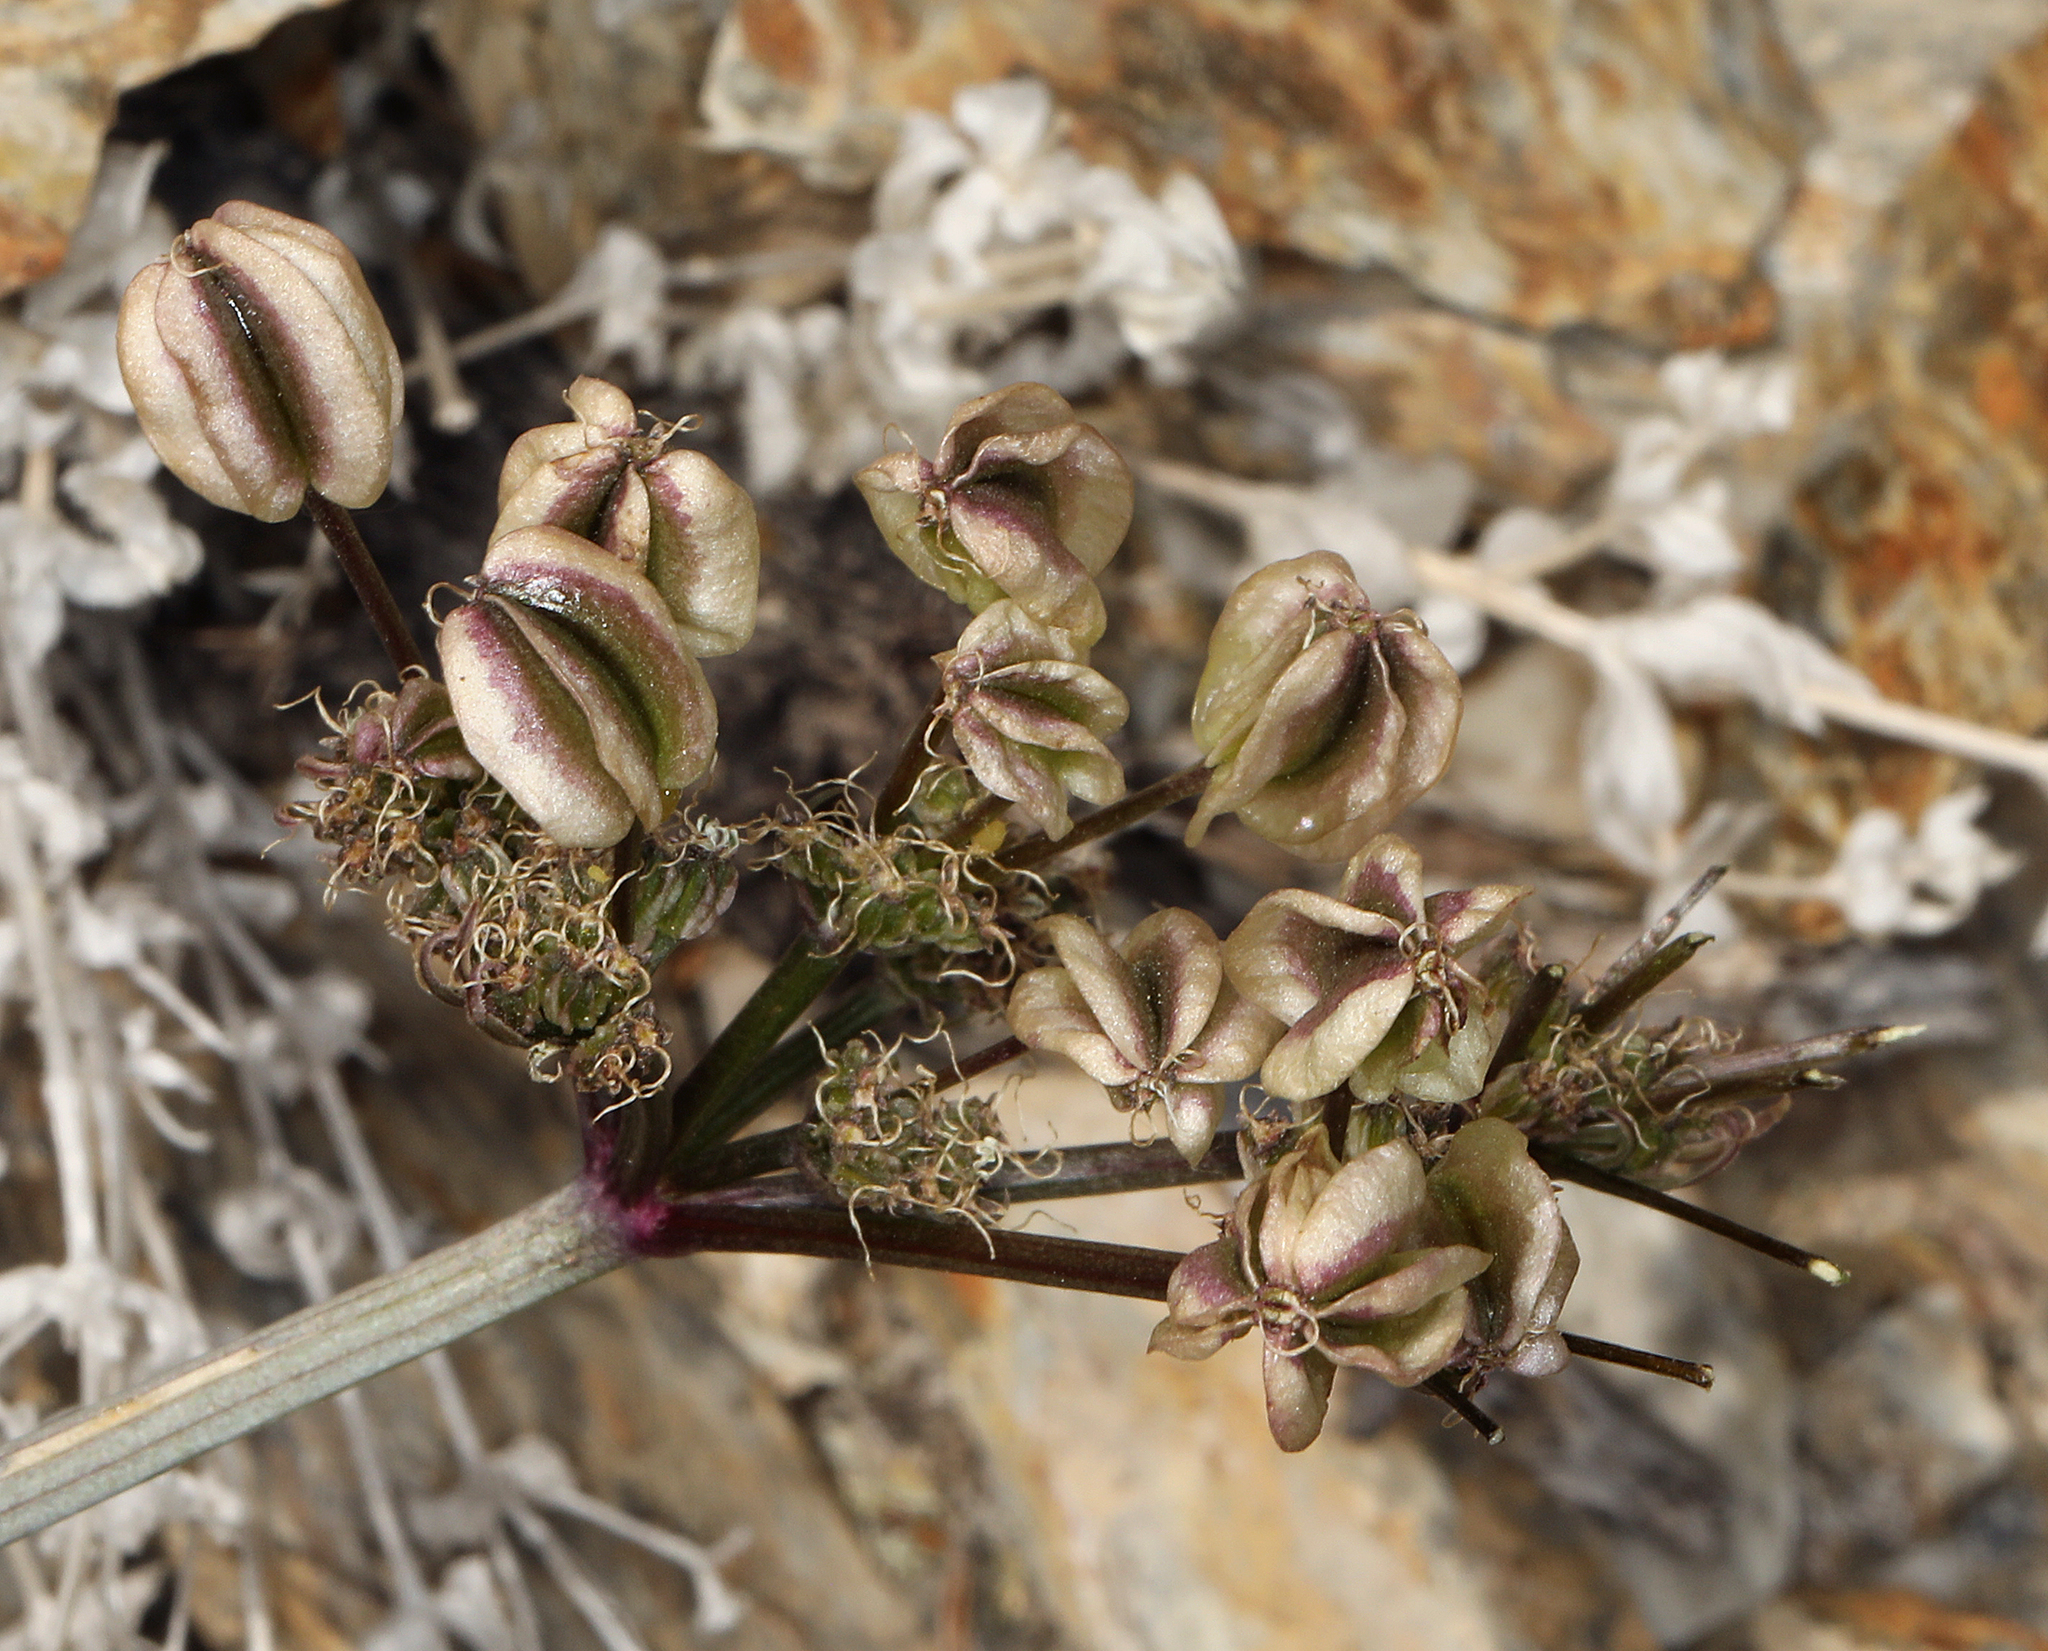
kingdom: Plantae
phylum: Tracheophyta
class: Magnoliopsida
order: Apiales
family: Apiaceae
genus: Aulospermum
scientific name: Aulospermum aboriginum
